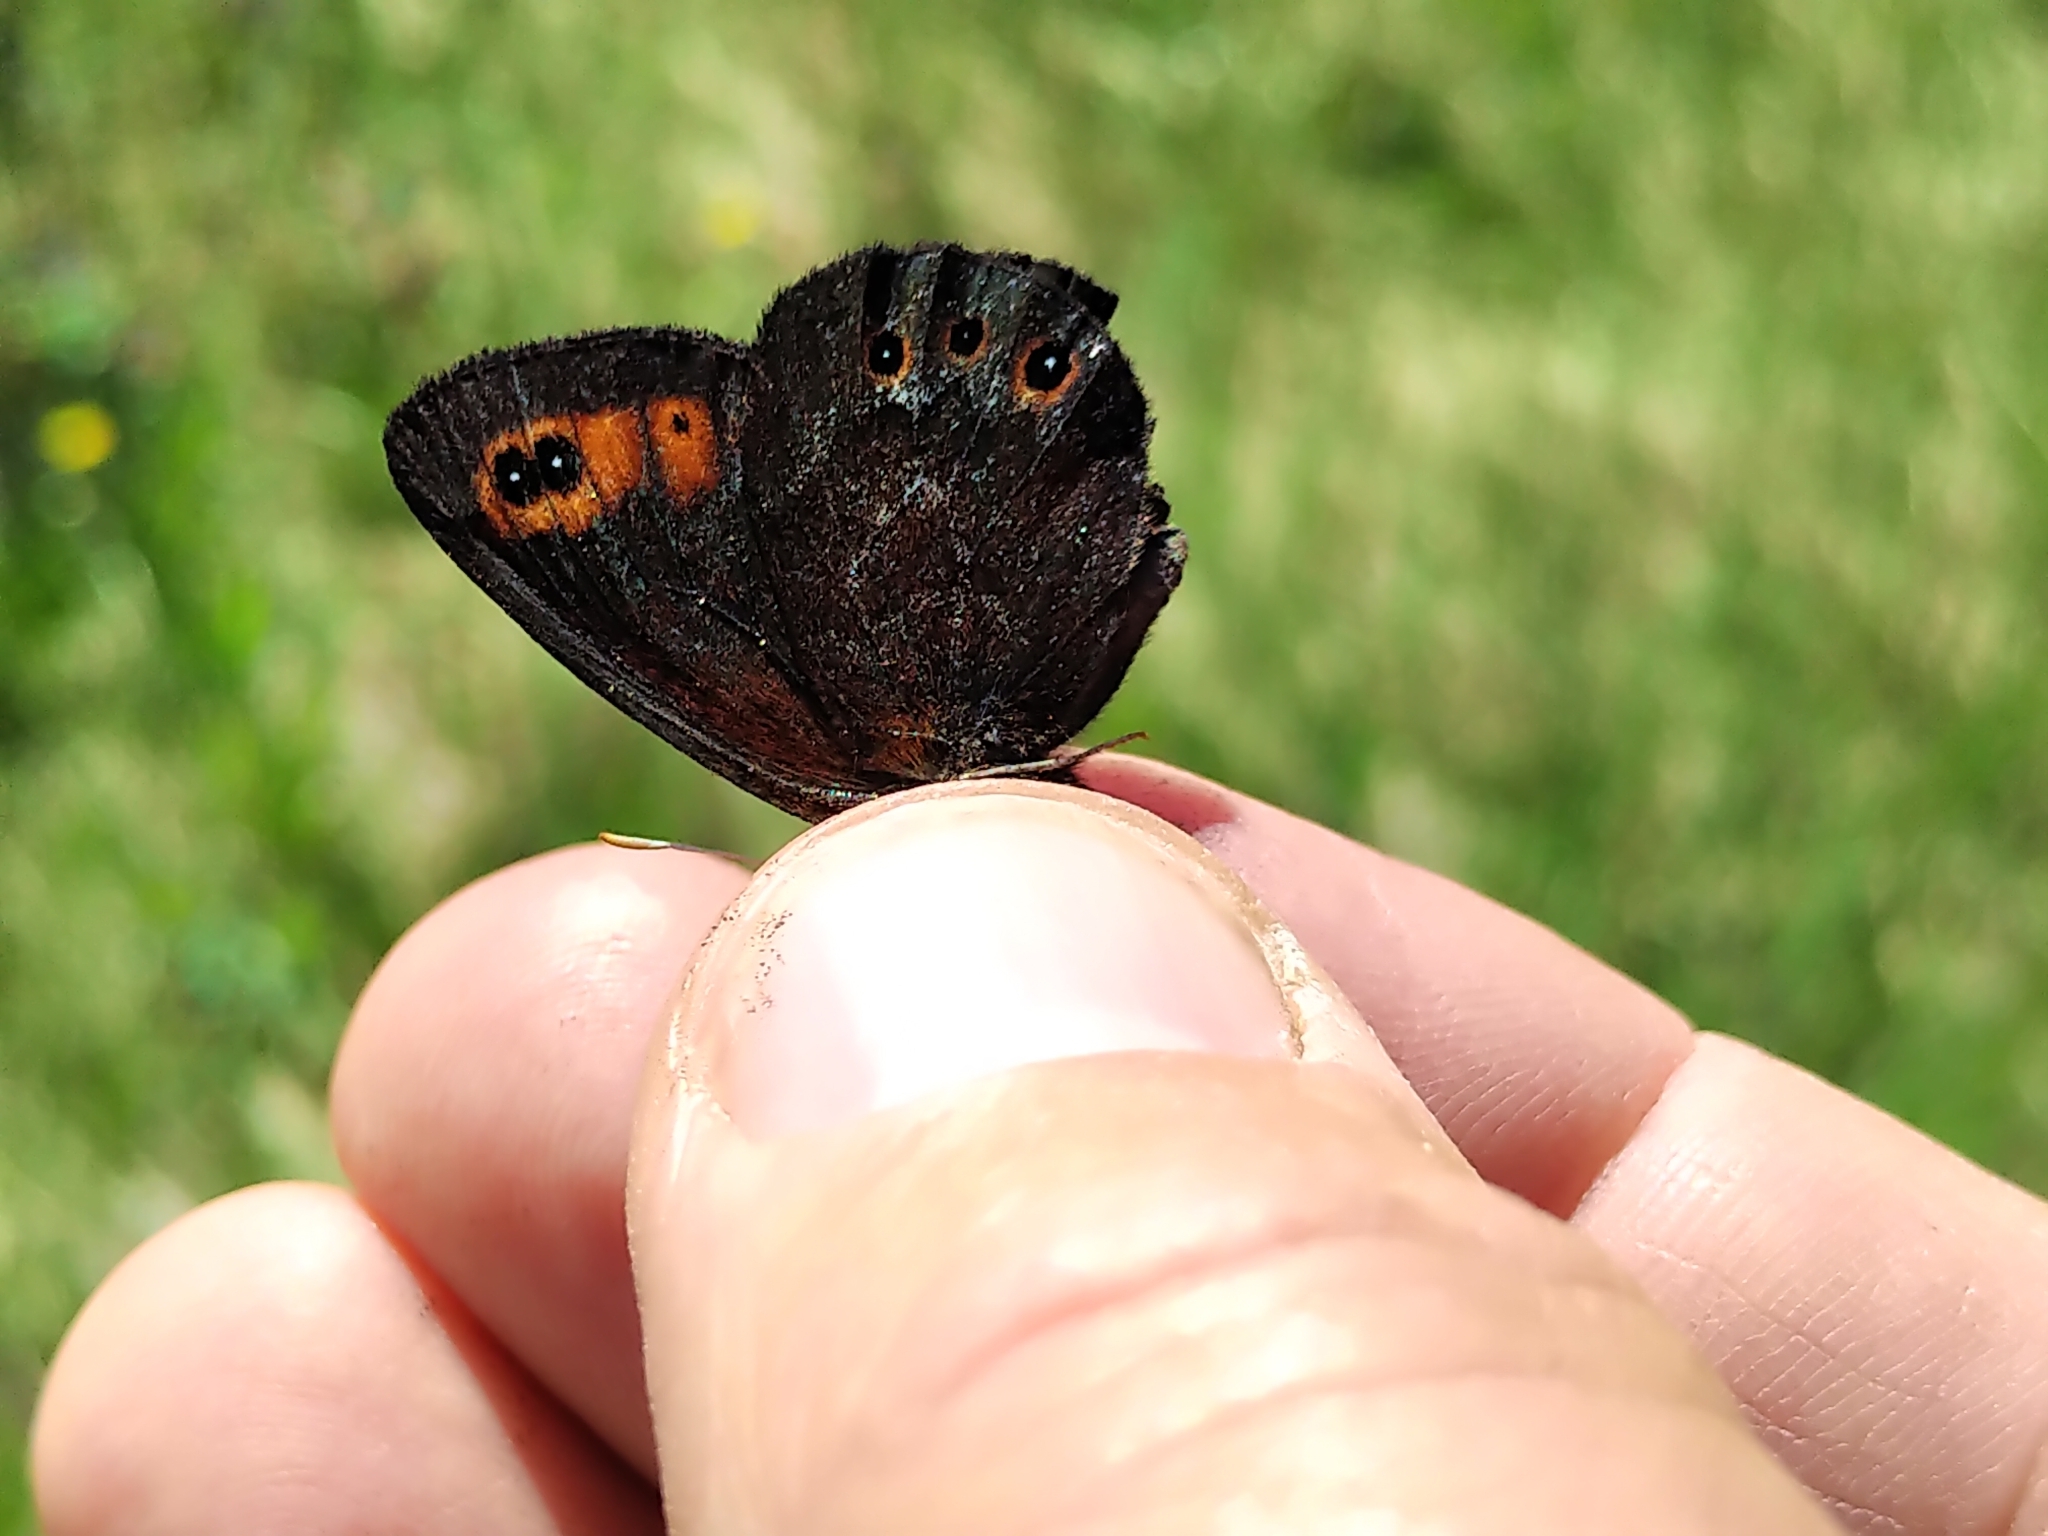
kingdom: Animalia
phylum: Arthropoda
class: Insecta
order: Lepidoptera
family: Nymphalidae
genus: Erebia
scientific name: Erebia epipsodea
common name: Common alpine
